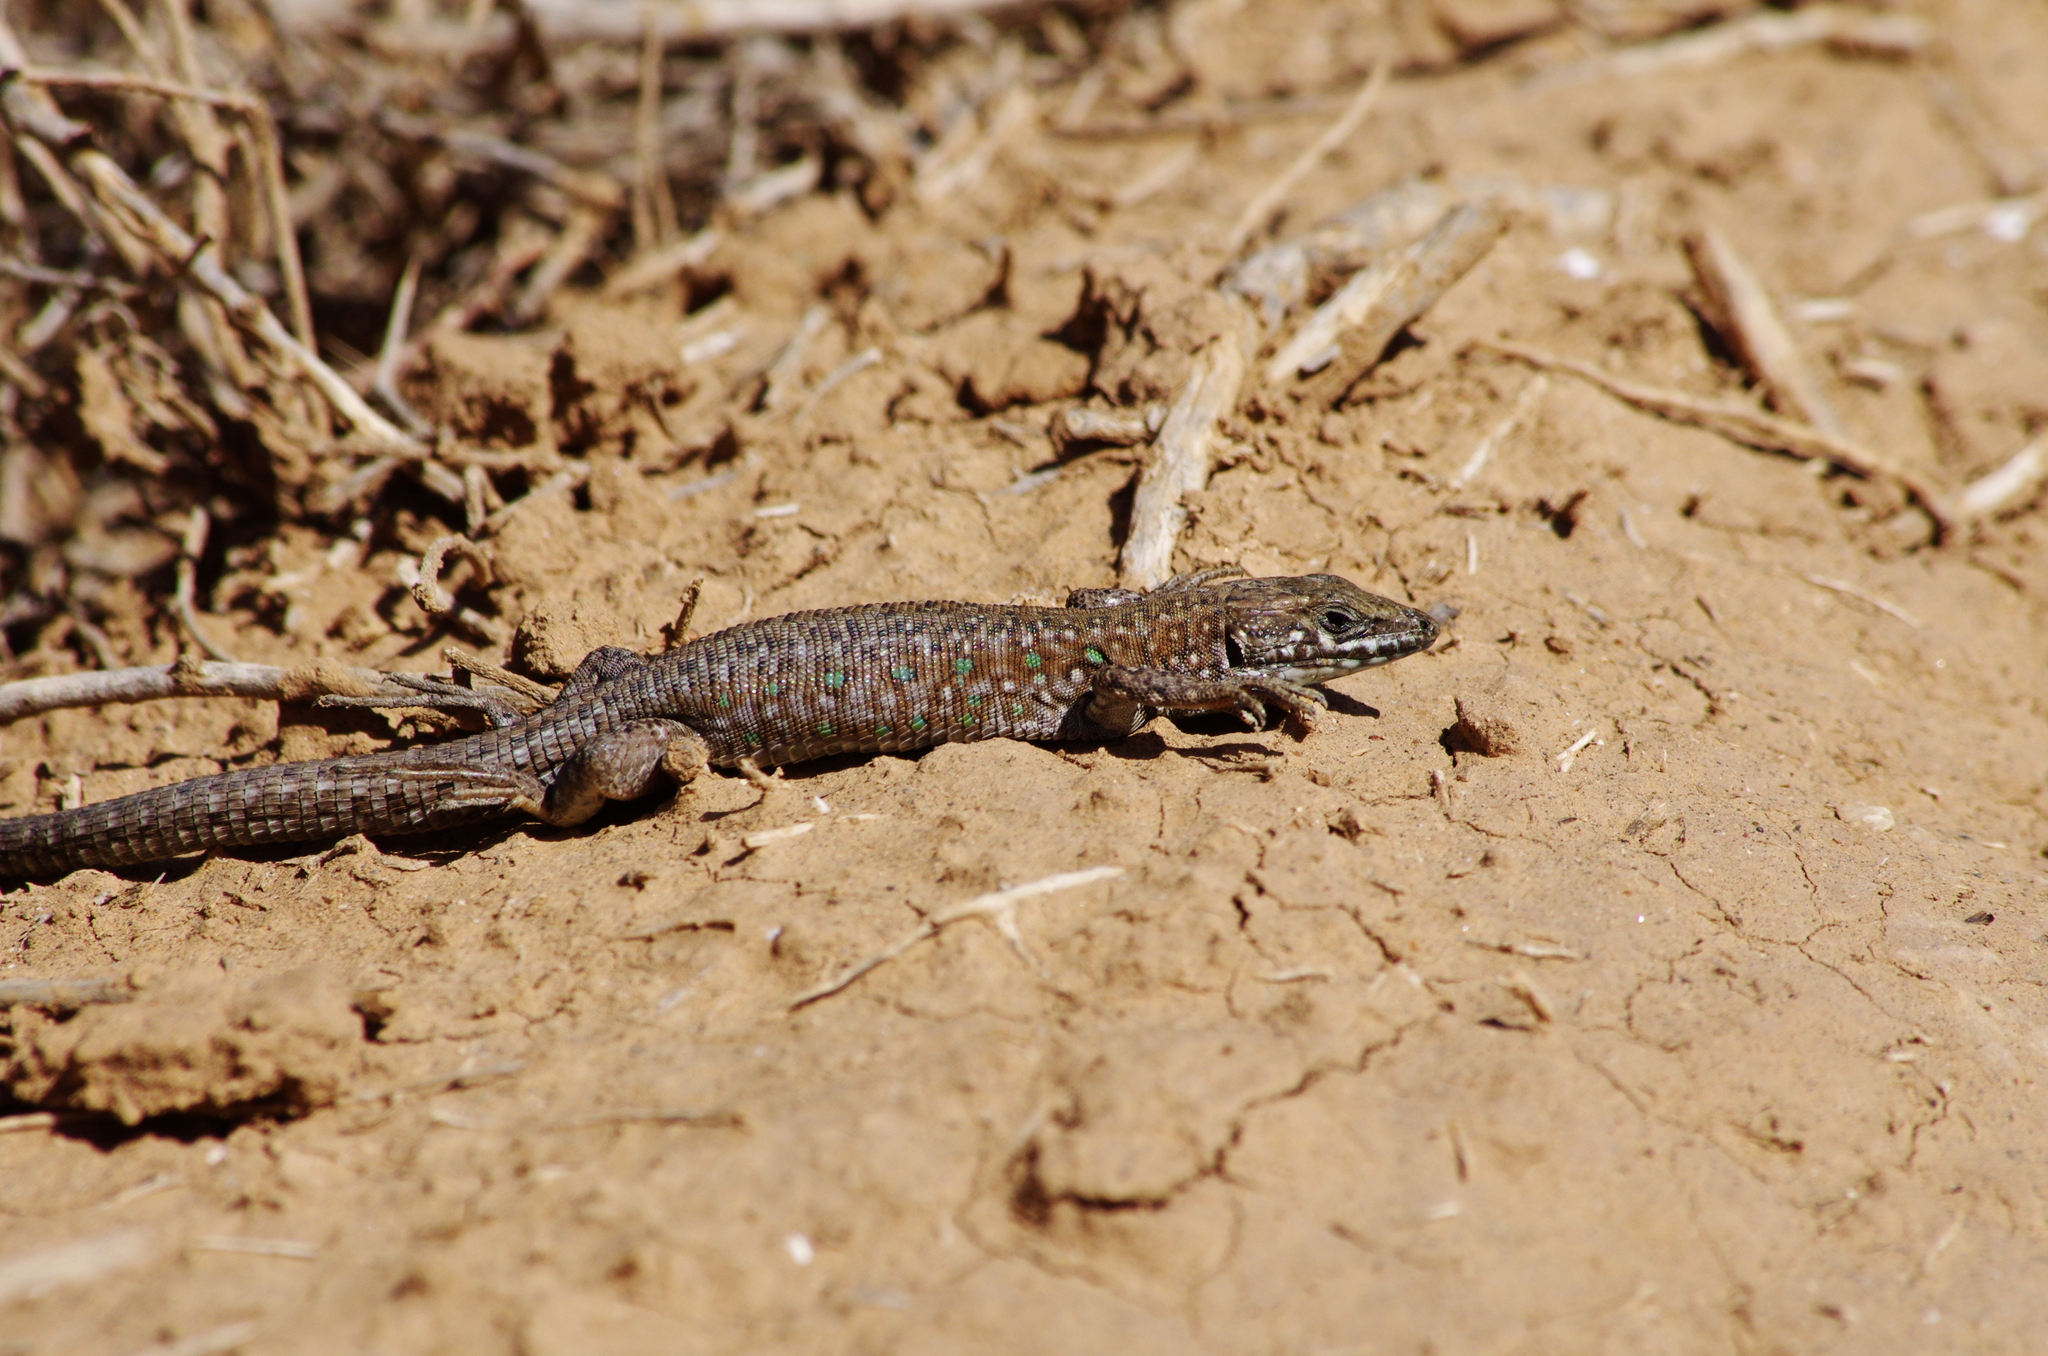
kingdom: Animalia
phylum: Chordata
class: Squamata
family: Lacertidae
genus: Gallotia
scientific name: Gallotia atlantica
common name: Atlantic lizard
